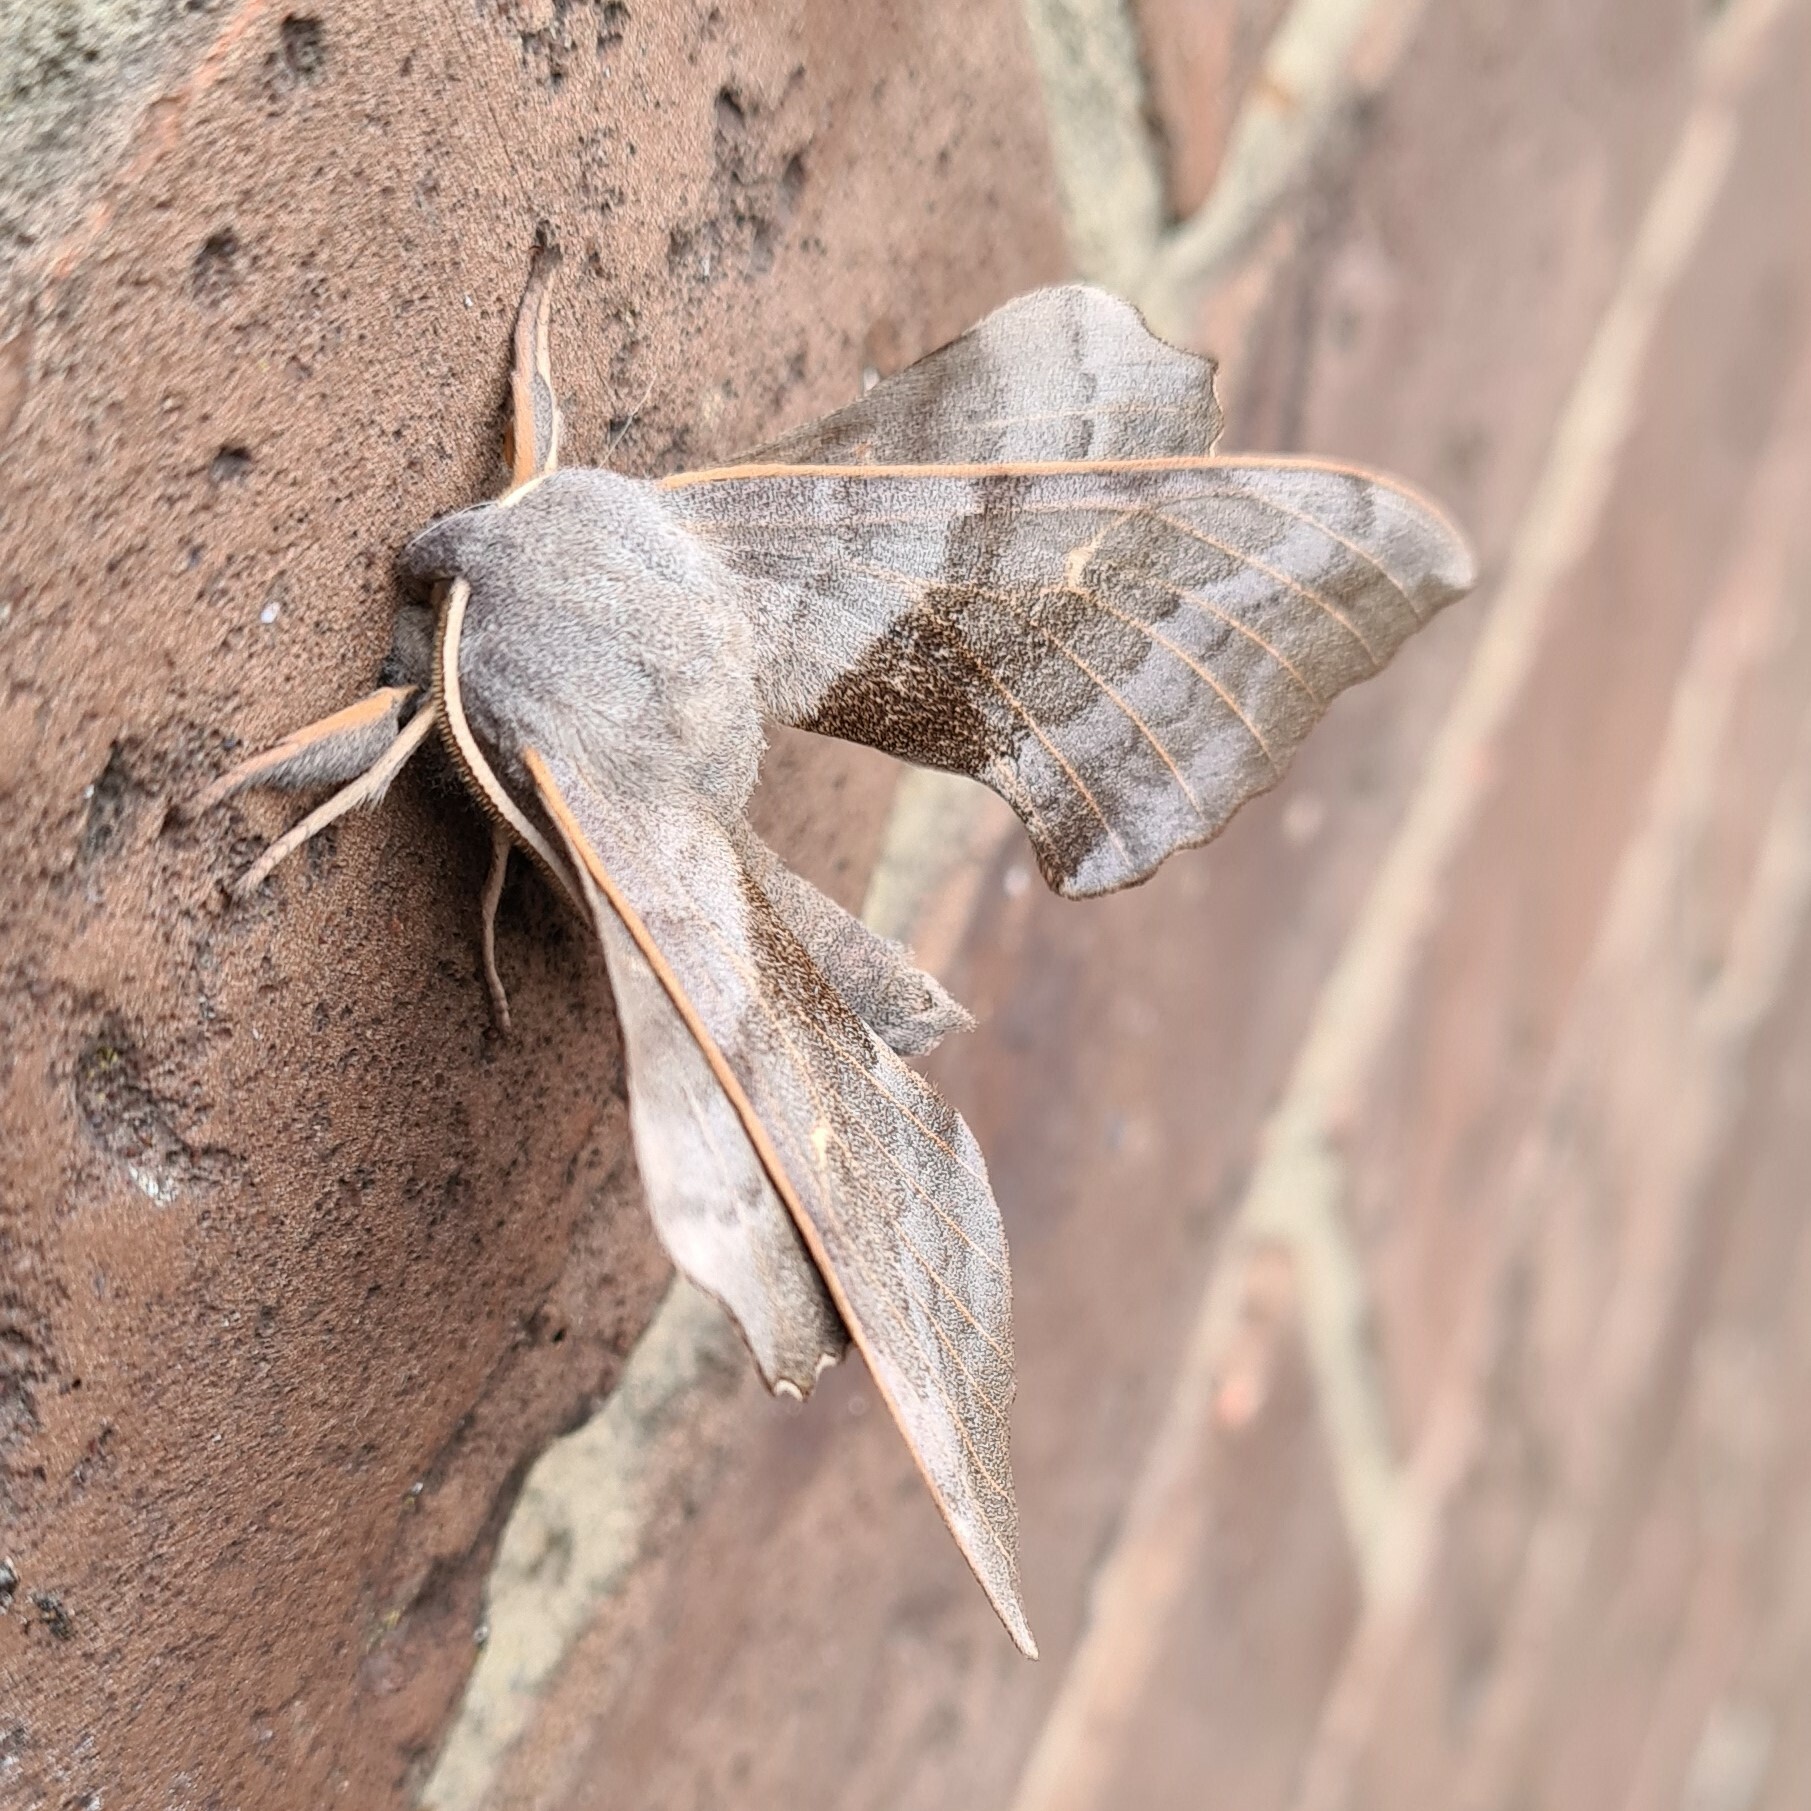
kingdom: Animalia
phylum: Arthropoda
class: Insecta
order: Lepidoptera
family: Sphingidae
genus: Laothoe
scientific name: Laothoe populi
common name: Poplar hawk-moth
